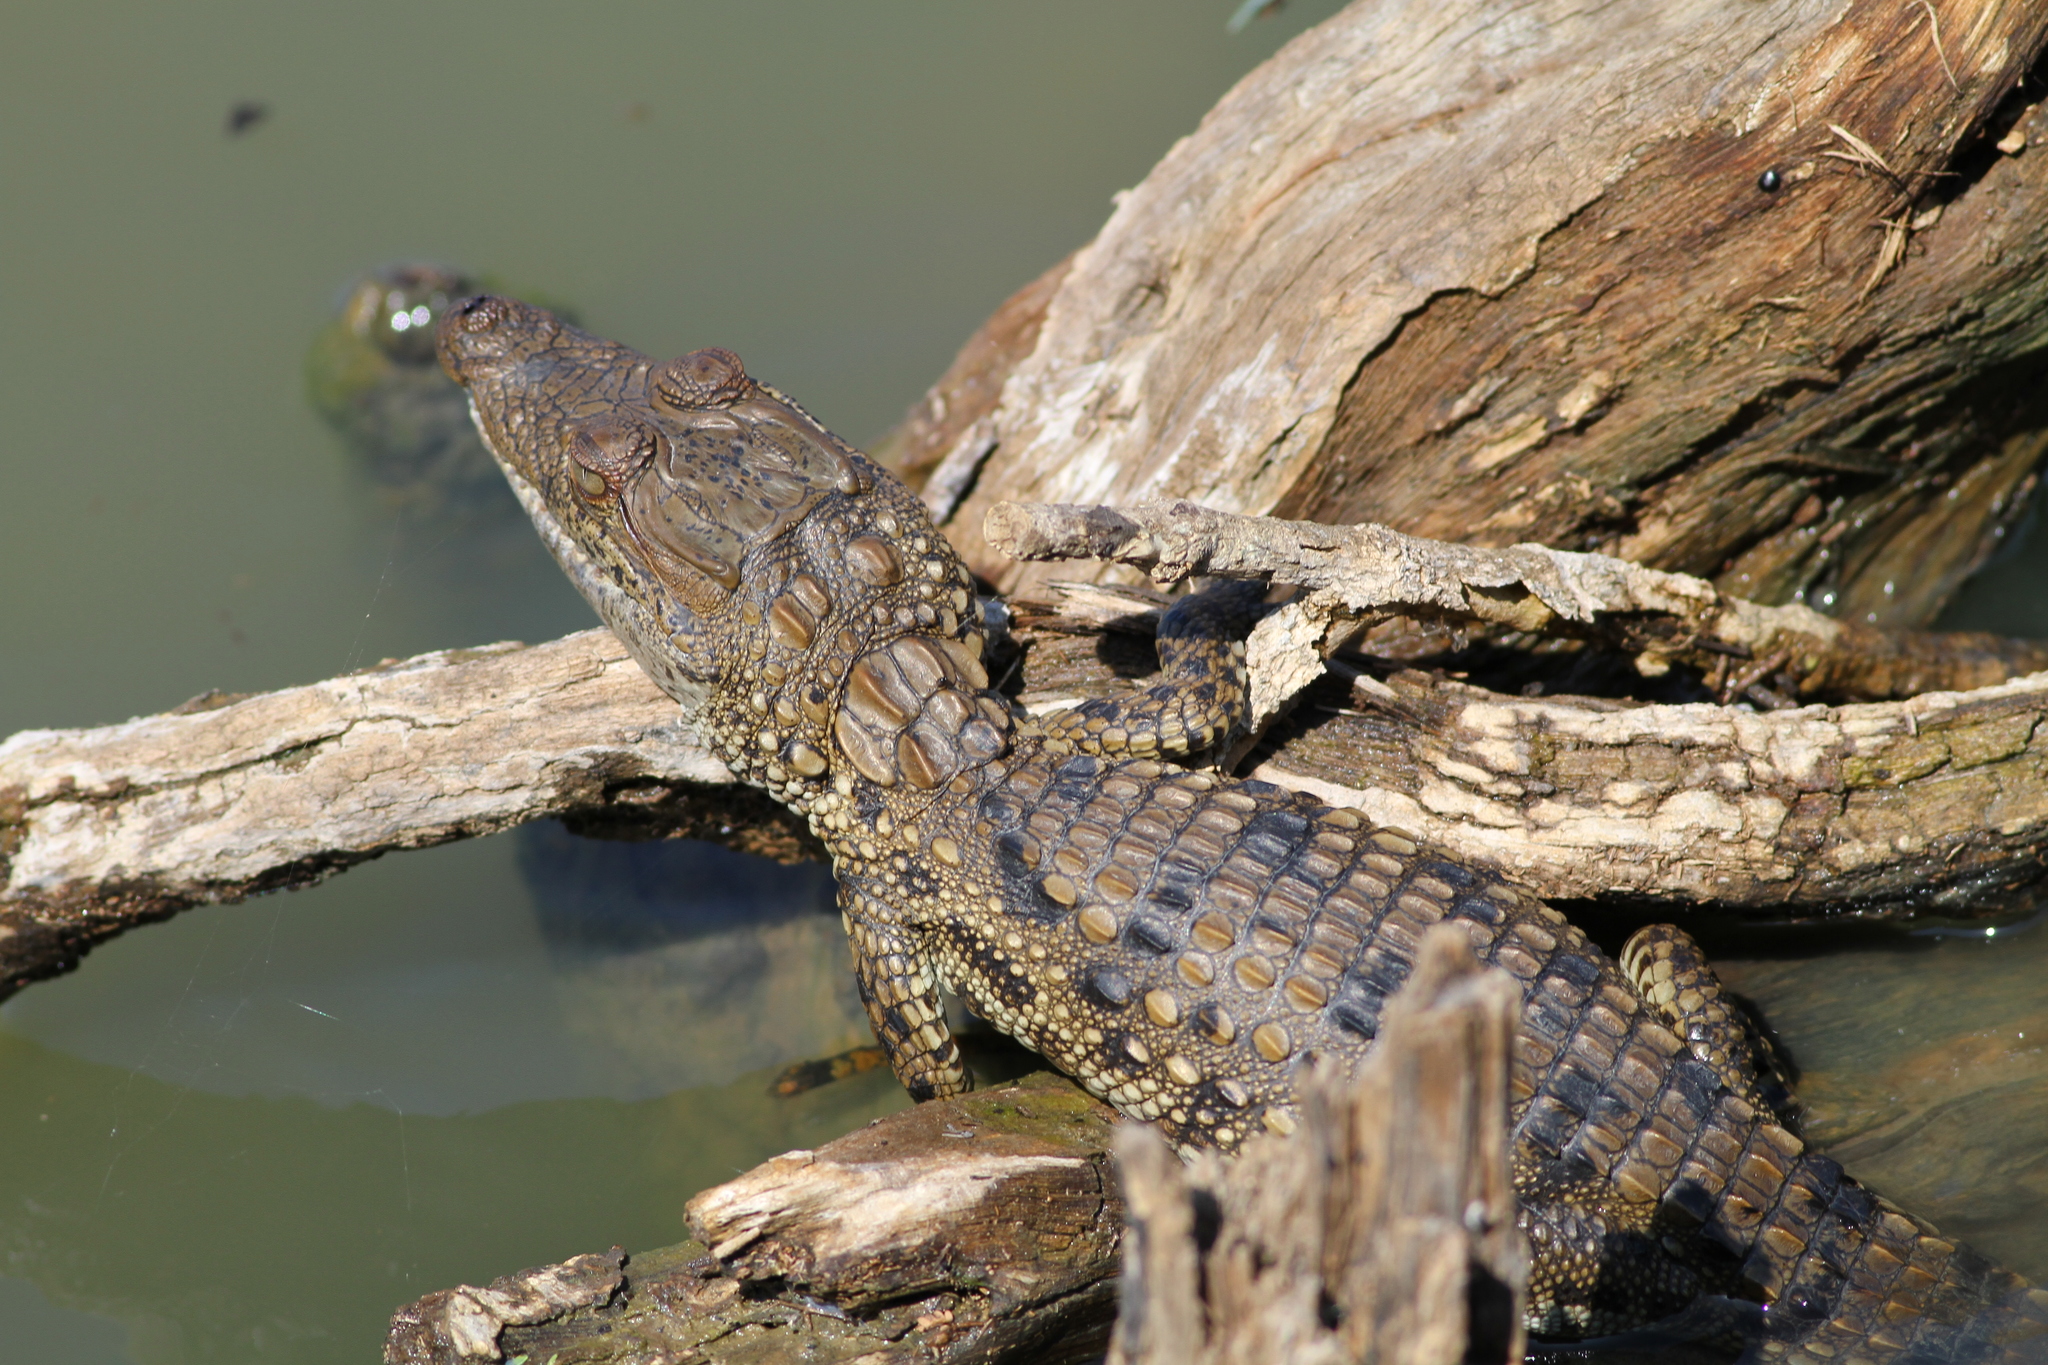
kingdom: Animalia
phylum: Chordata
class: Crocodylia
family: Crocodylidae
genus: Crocodylus
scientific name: Crocodylus palustris
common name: Mugger crocodile
